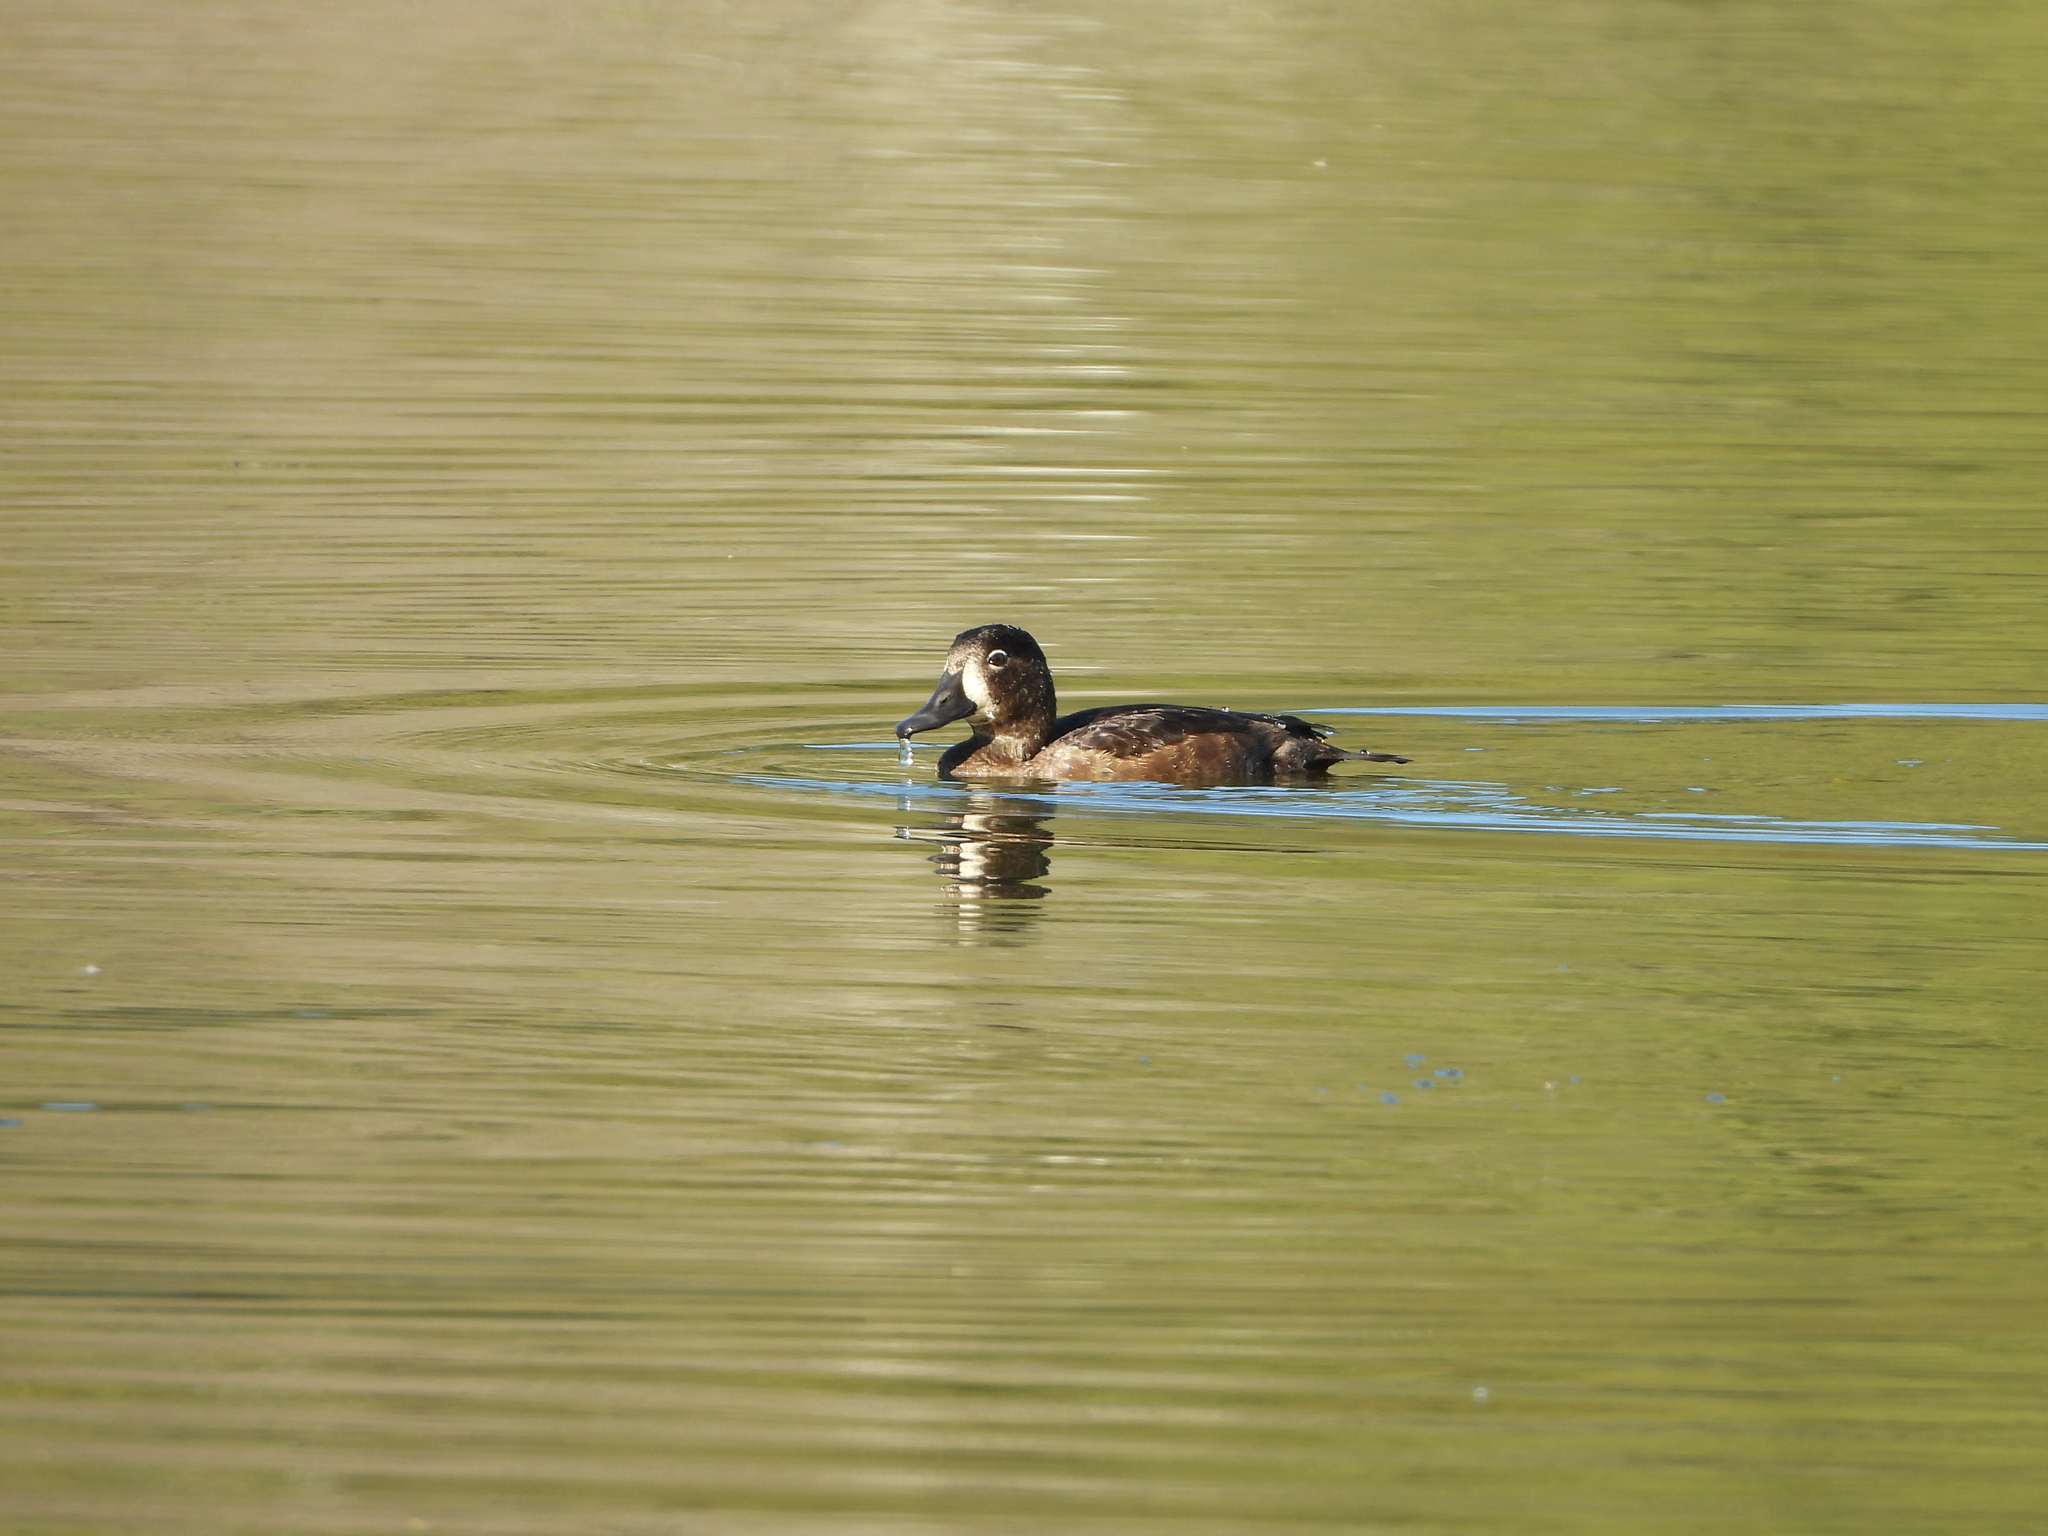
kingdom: Animalia
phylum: Chordata
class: Aves
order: Anseriformes
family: Anatidae
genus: Aythya
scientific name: Aythya affinis
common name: Lesser scaup
